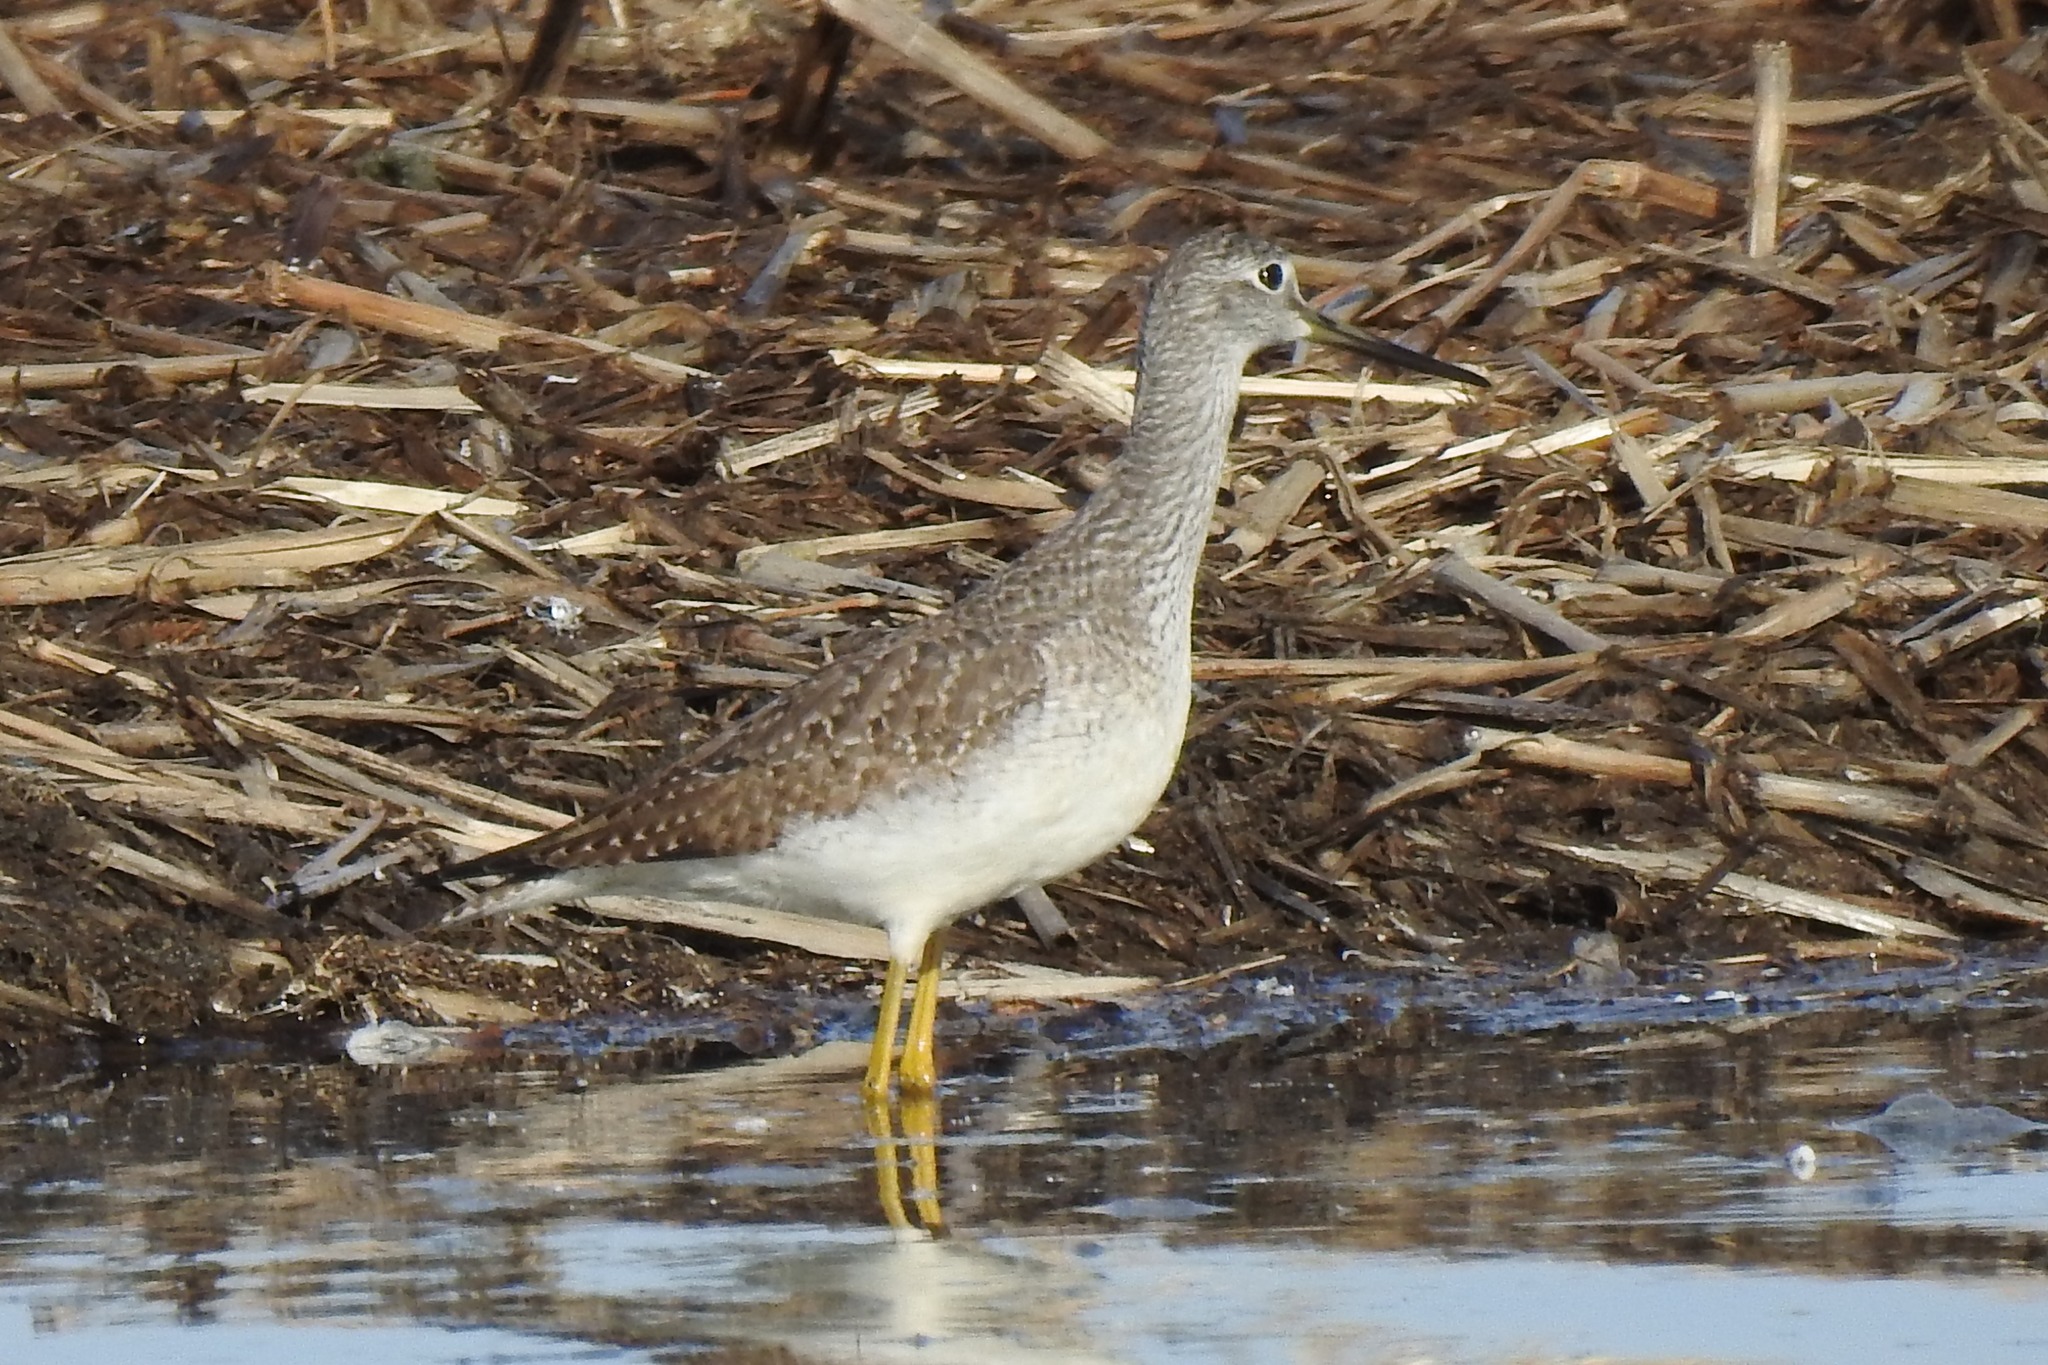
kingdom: Animalia
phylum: Chordata
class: Aves
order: Charadriiformes
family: Scolopacidae
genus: Tringa
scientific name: Tringa melanoleuca
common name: Greater yellowlegs
